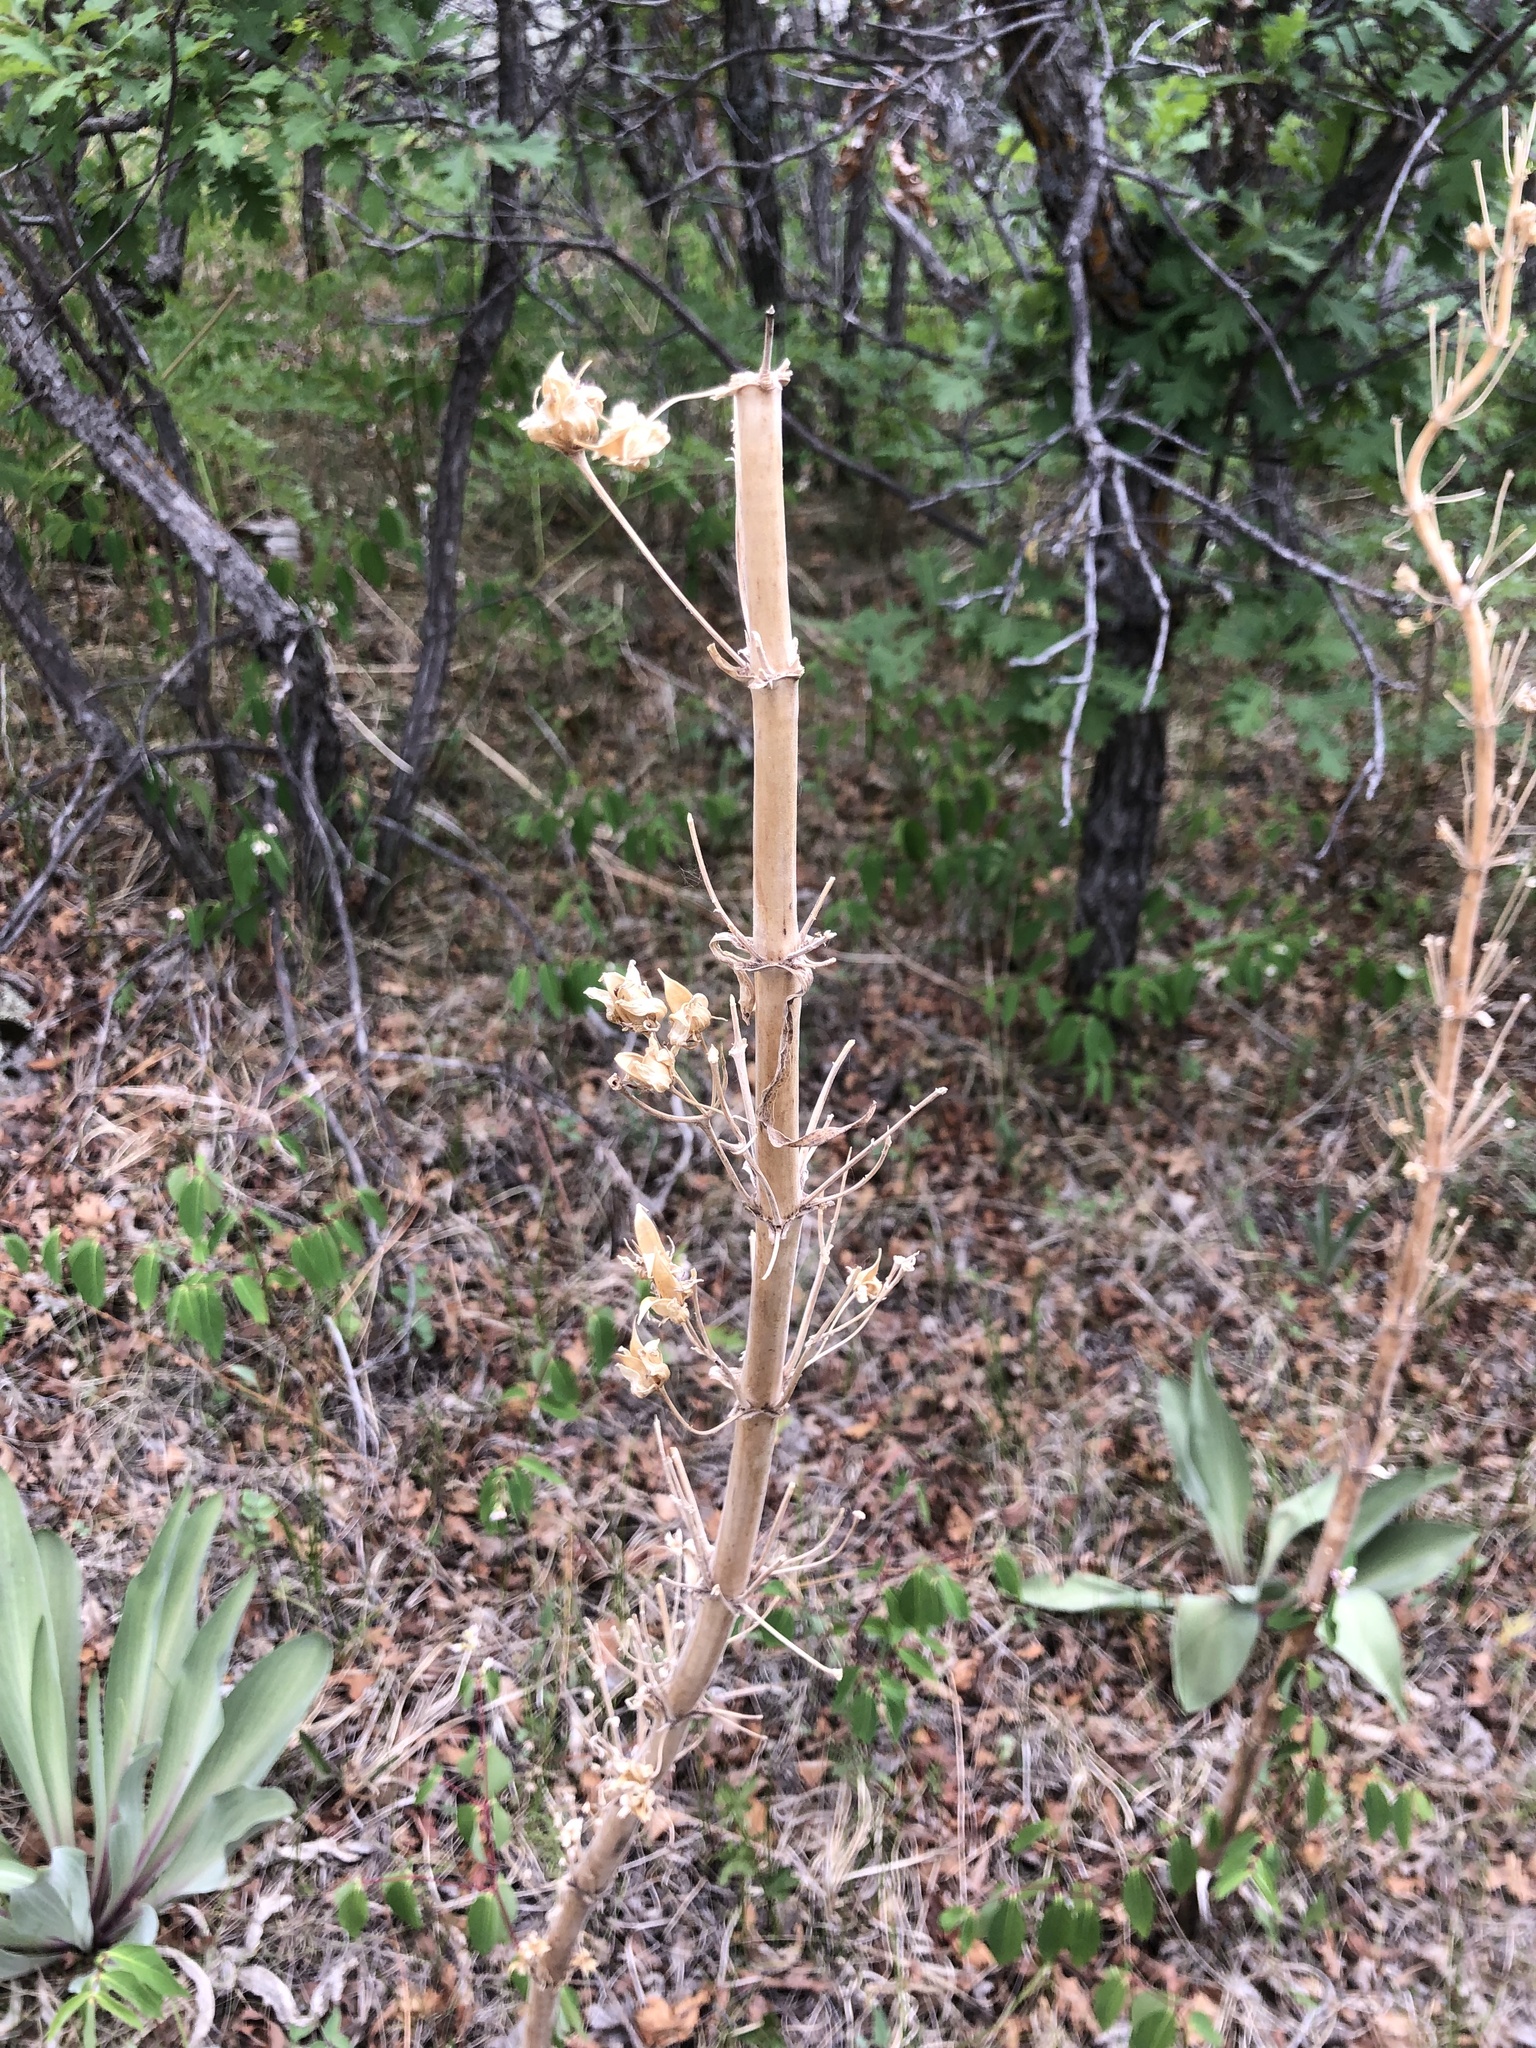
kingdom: Plantae
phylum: Tracheophyta
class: Magnoliopsida
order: Gentianales
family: Gentianaceae
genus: Frasera
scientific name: Frasera speciosa
